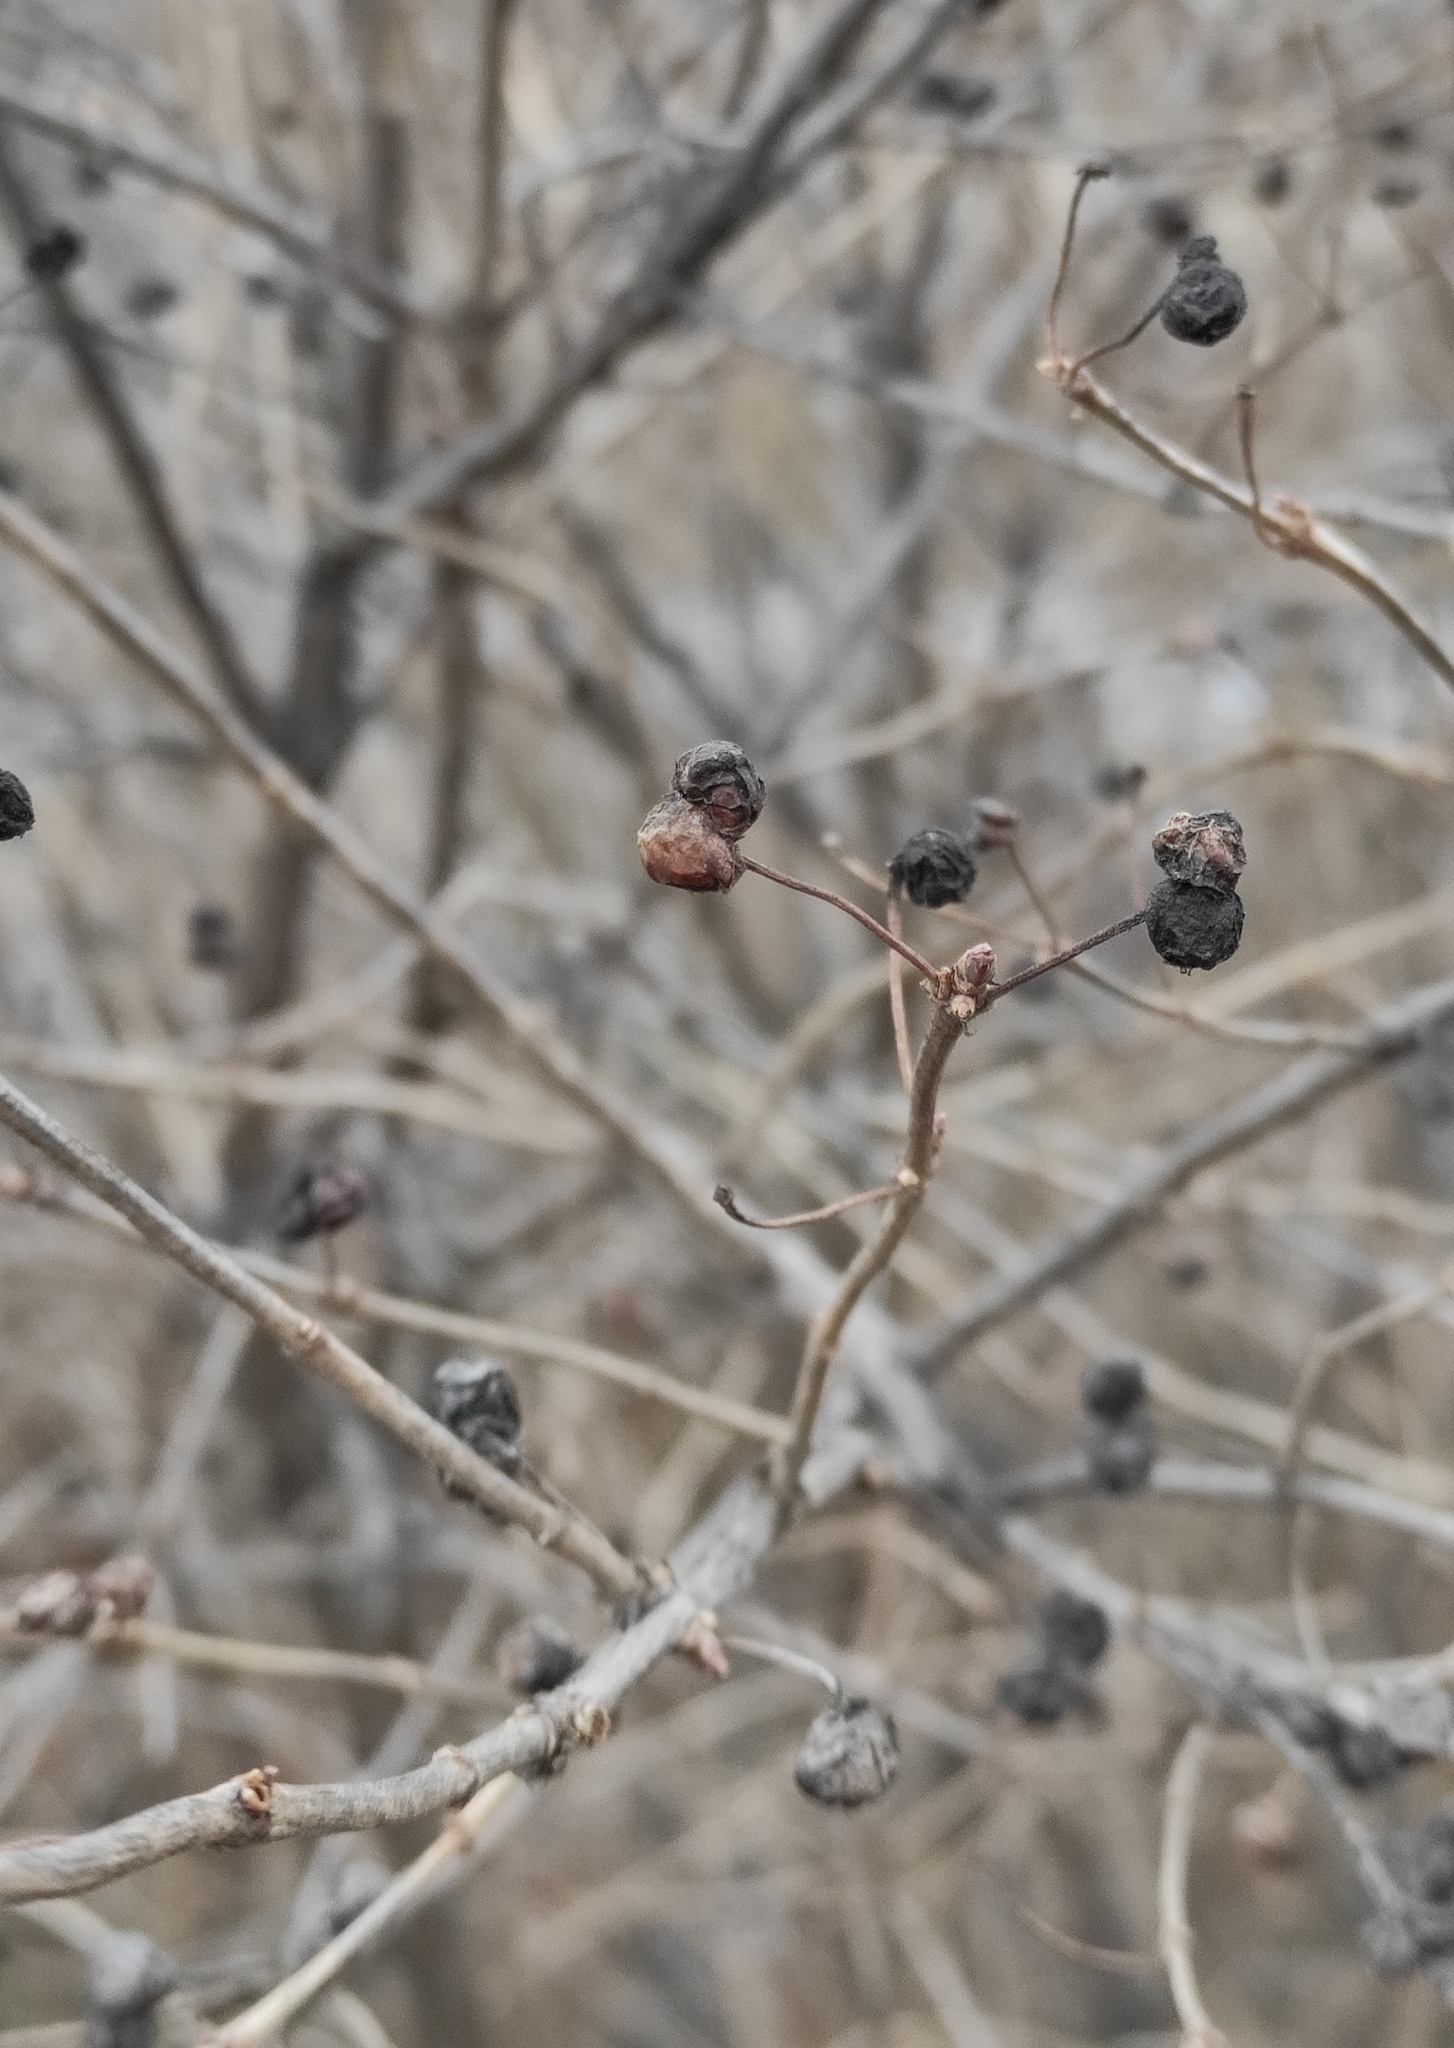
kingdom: Plantae
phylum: Tracheophyta
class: Magnoliopsida
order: Dipsacales
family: Caprifoliaceae
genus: Lonicera
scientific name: Lonicera tatarica
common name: Tatarian honeysuckle
